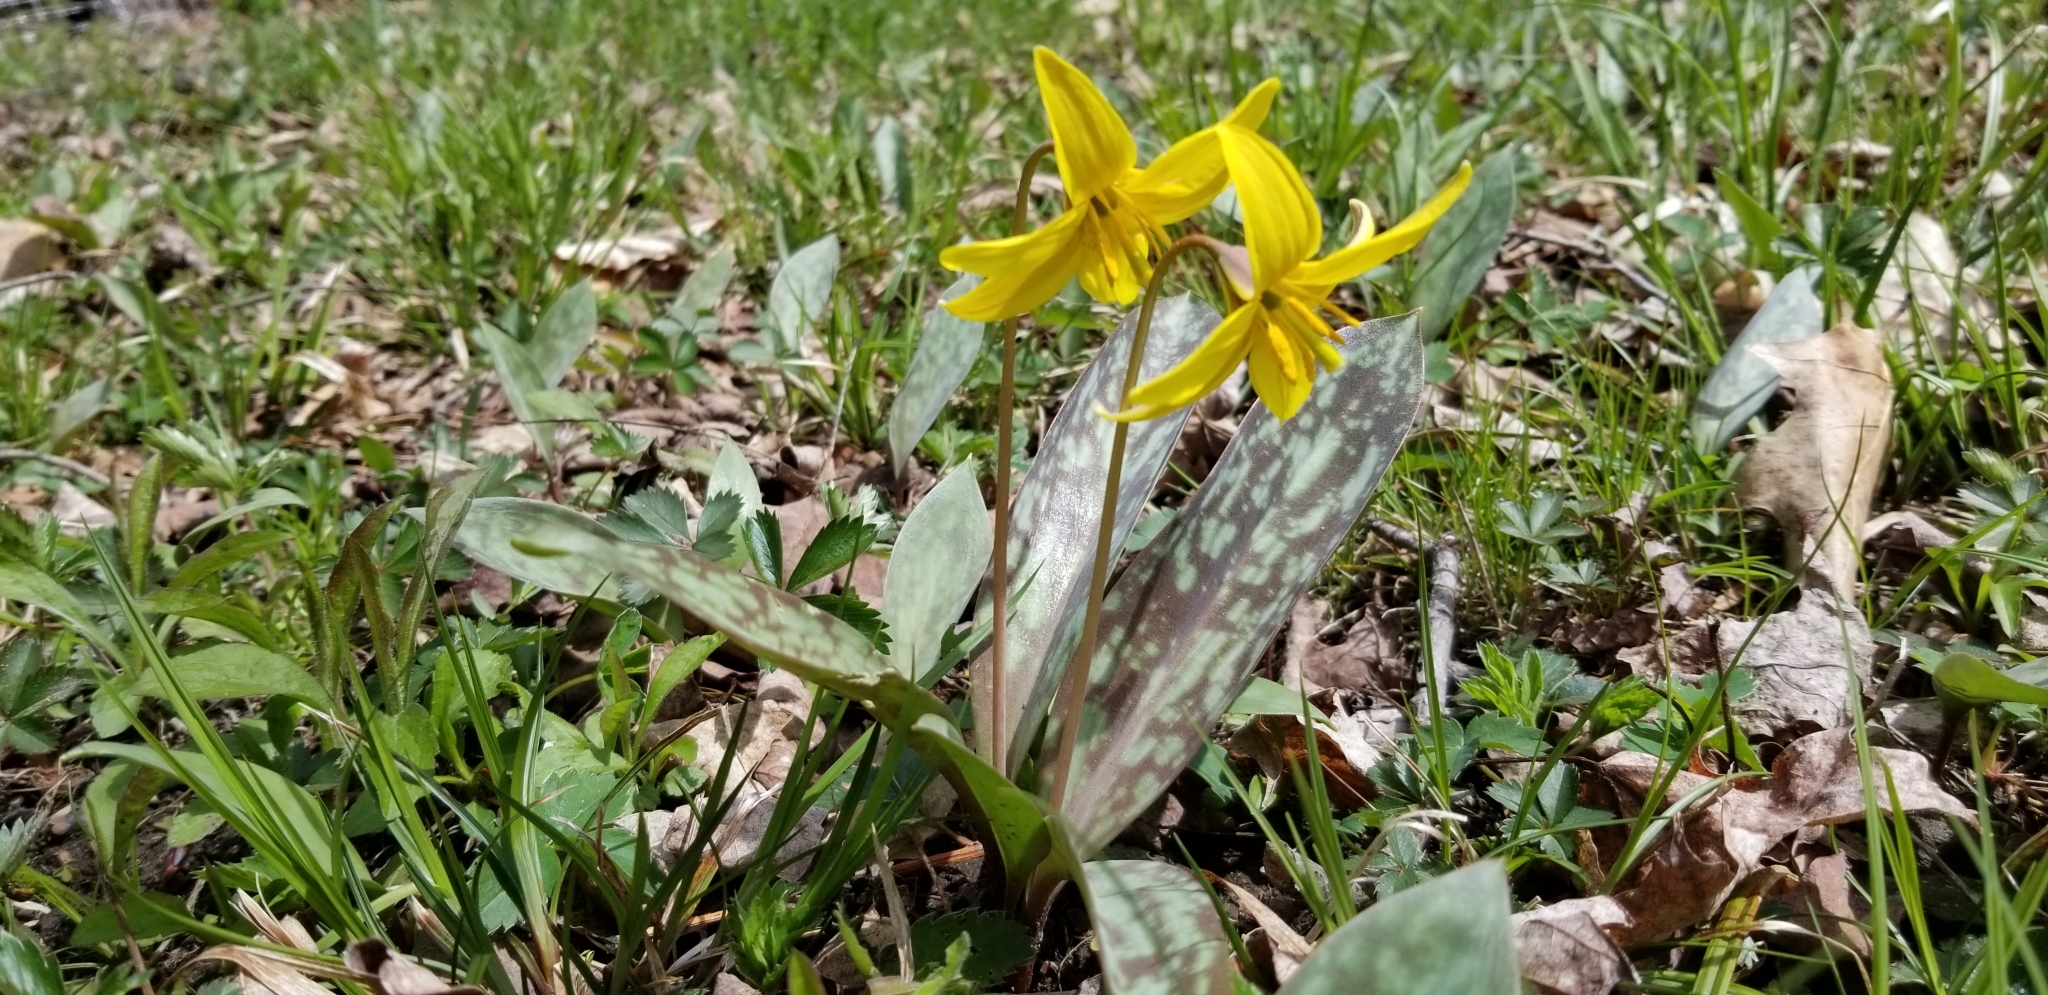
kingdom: Plantae
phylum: Tracheophyta
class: Liliopsida
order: Liliales
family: Liliaceae
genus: Erythronium
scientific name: Erythronium americanum
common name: Yellow adder's-tongue
